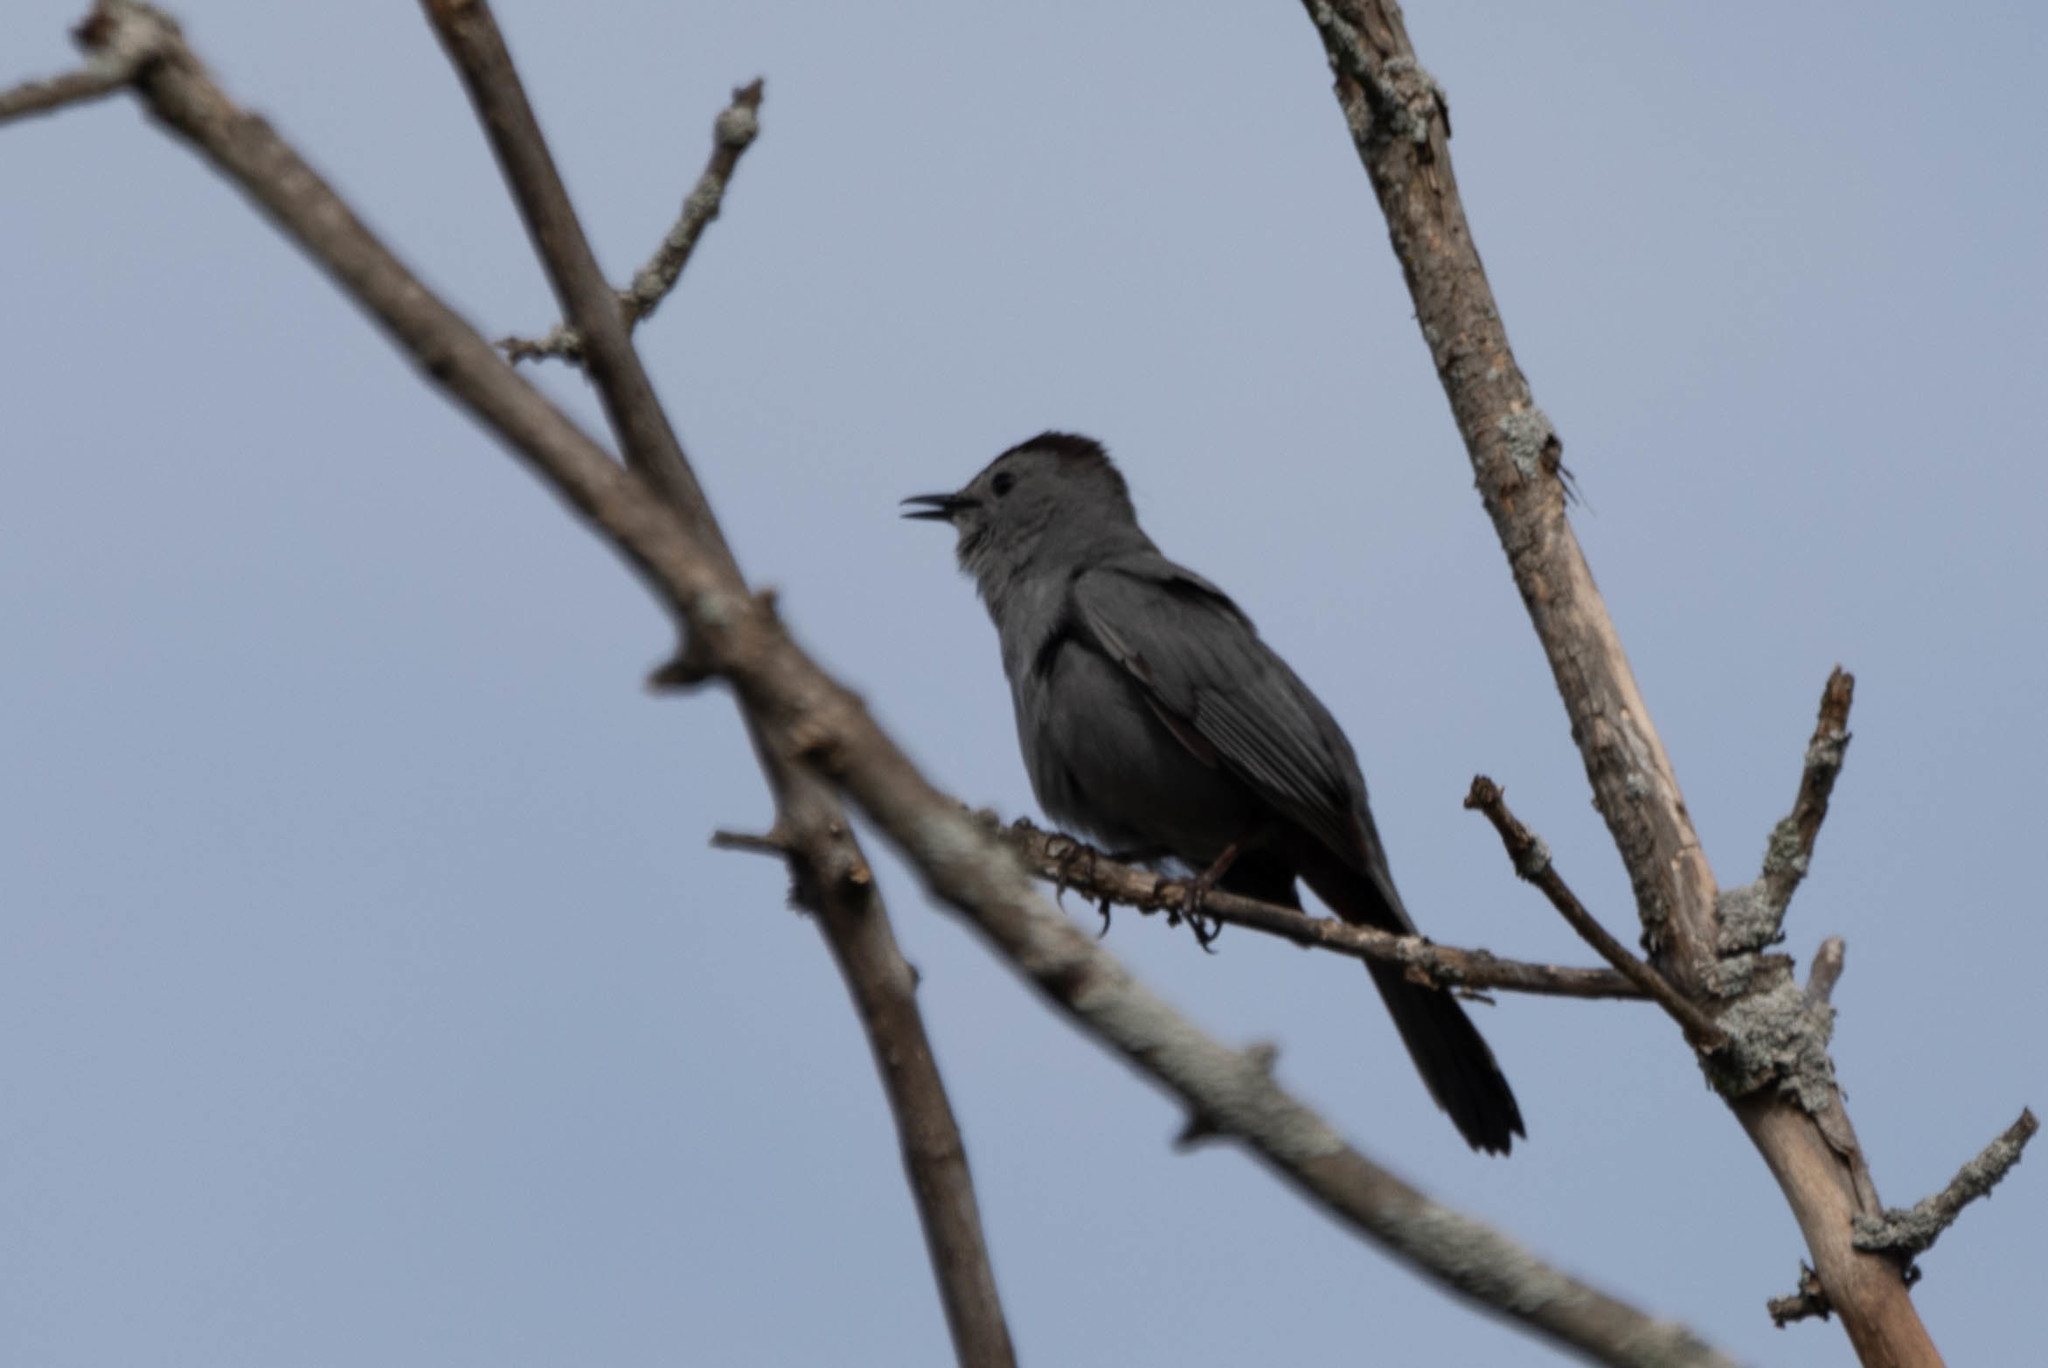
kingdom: Animalia
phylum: Chordata
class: Aves
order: Passeriformes
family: Mimidae
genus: Dumetella
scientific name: Dumetella carolinensis
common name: Gray catbird
